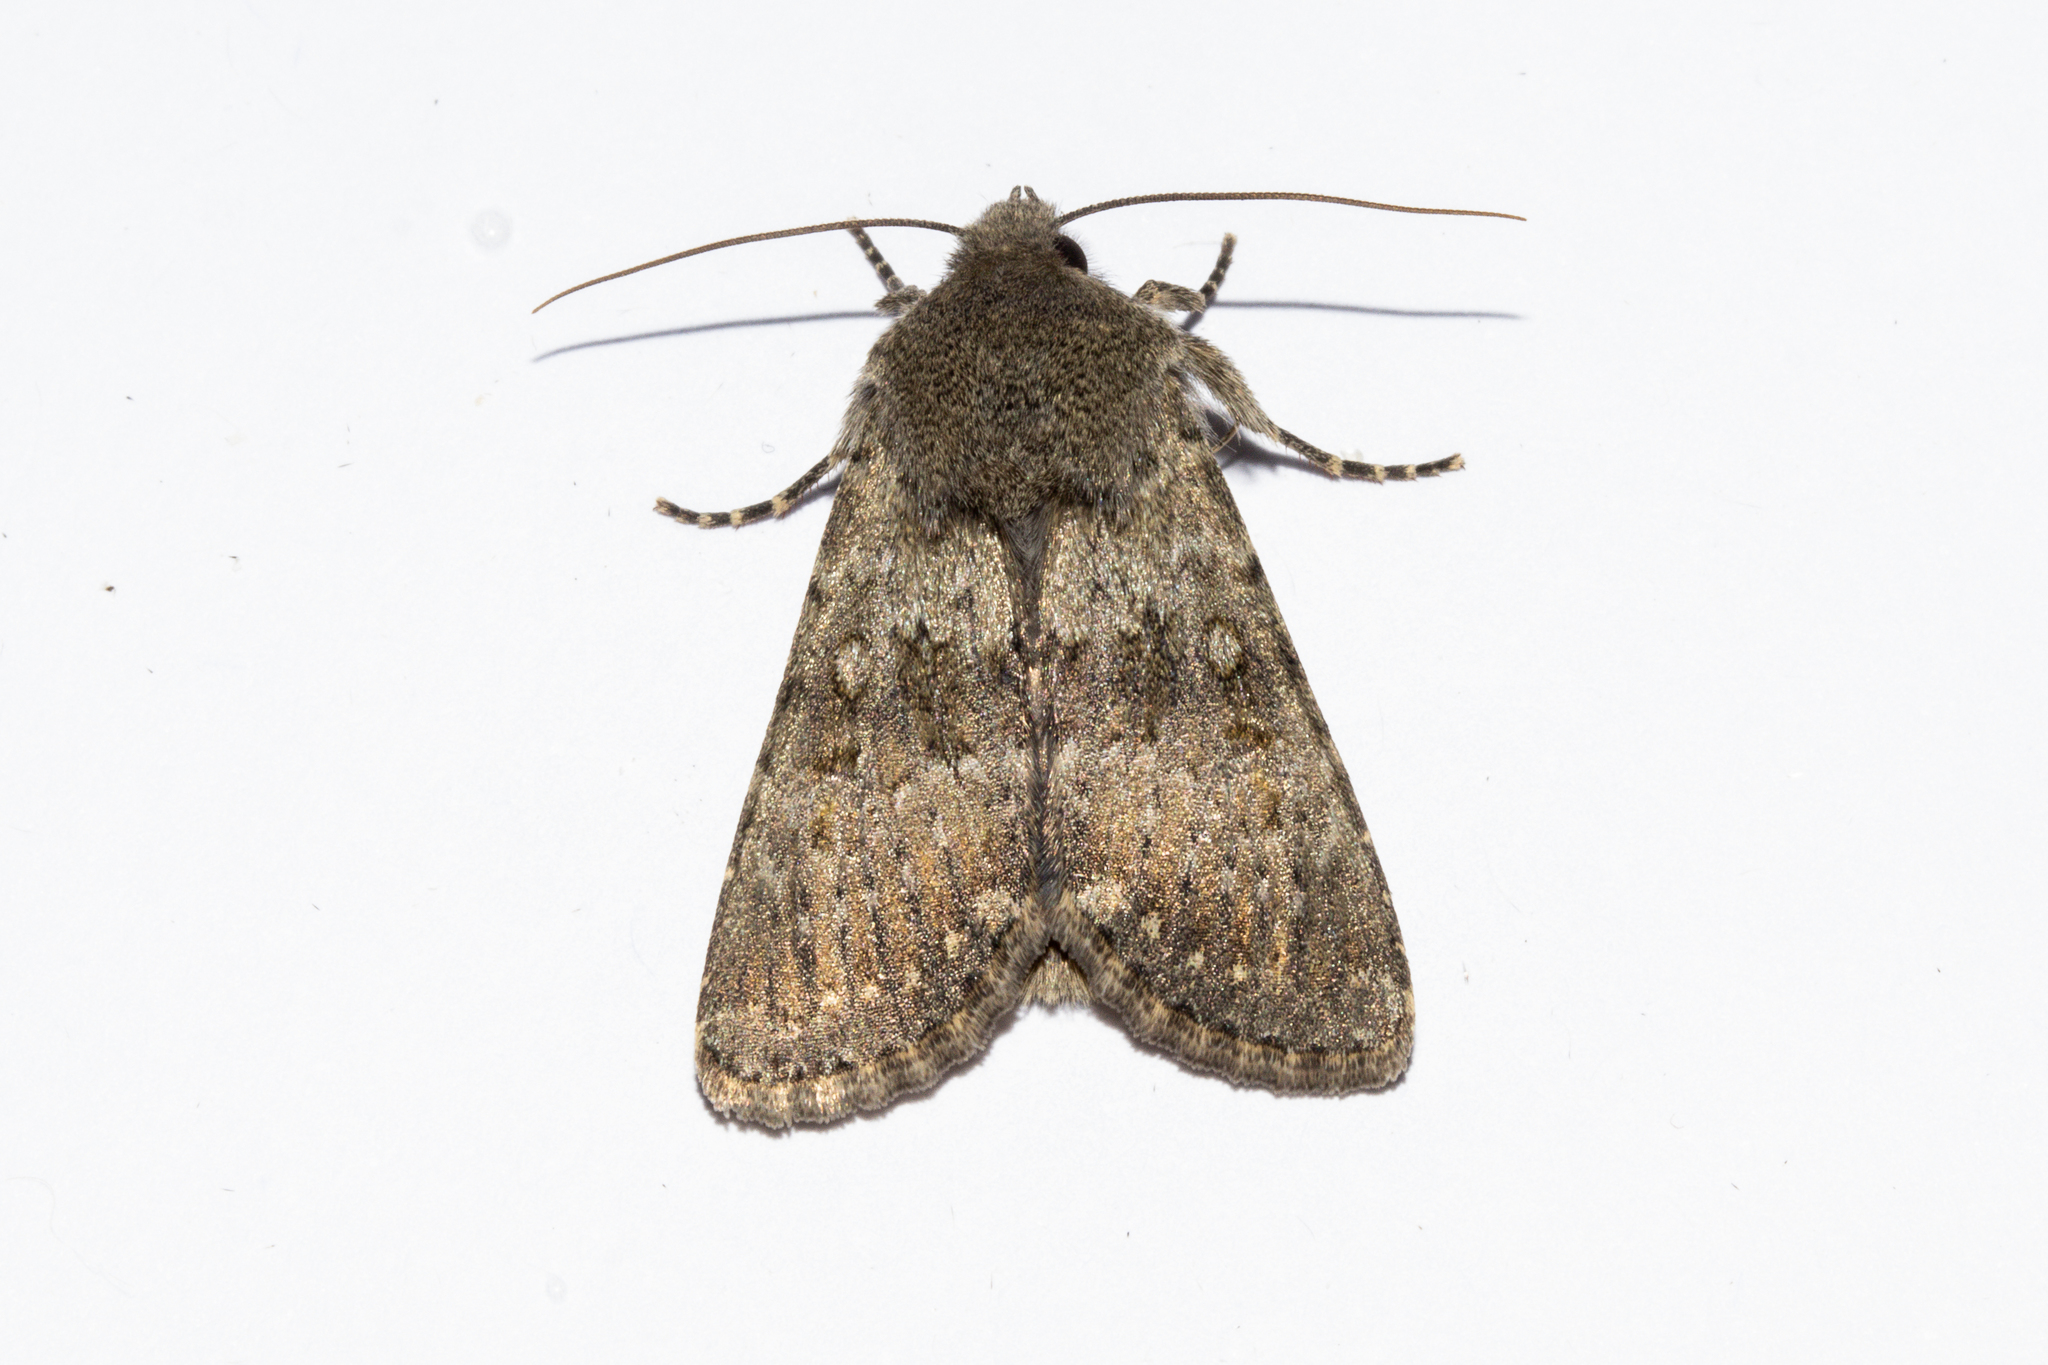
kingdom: Animalia
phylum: Arthropoda
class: Insecta
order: Lepidoptera
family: Noctuidae
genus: Ichneutica
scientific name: Ichneutica moderata
